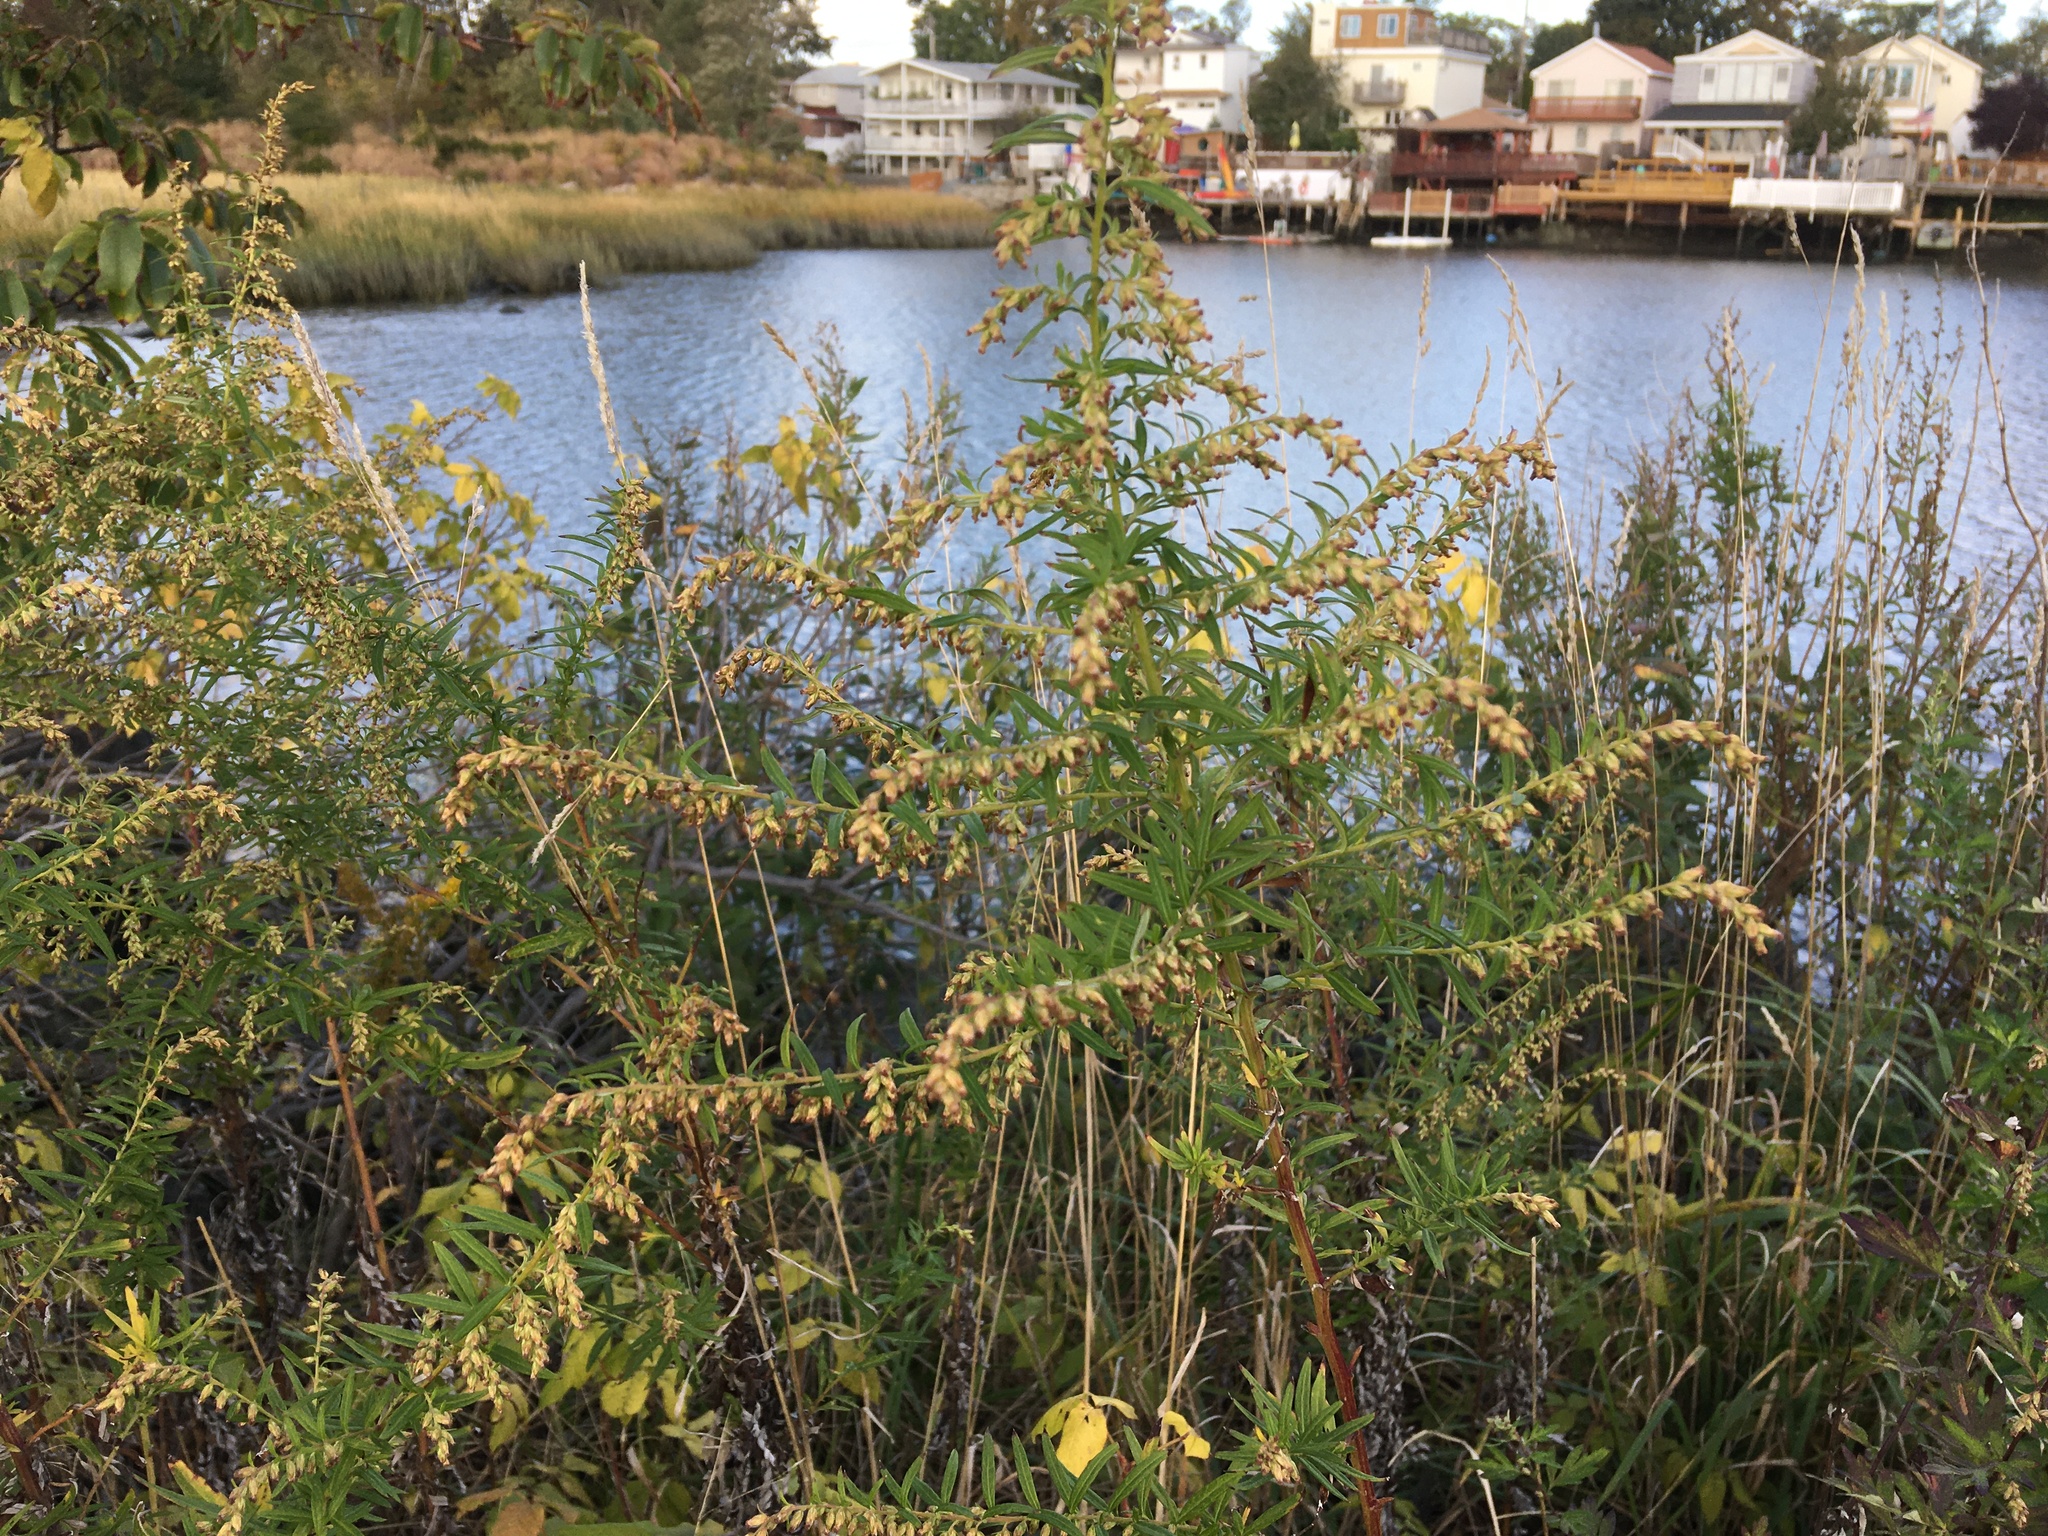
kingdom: Plantae
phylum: Tracheophyta
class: Magnoliopsida
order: Asterales
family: Asteraceae
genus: Artemisia
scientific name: Artemisia vulgaris
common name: Mugwort
